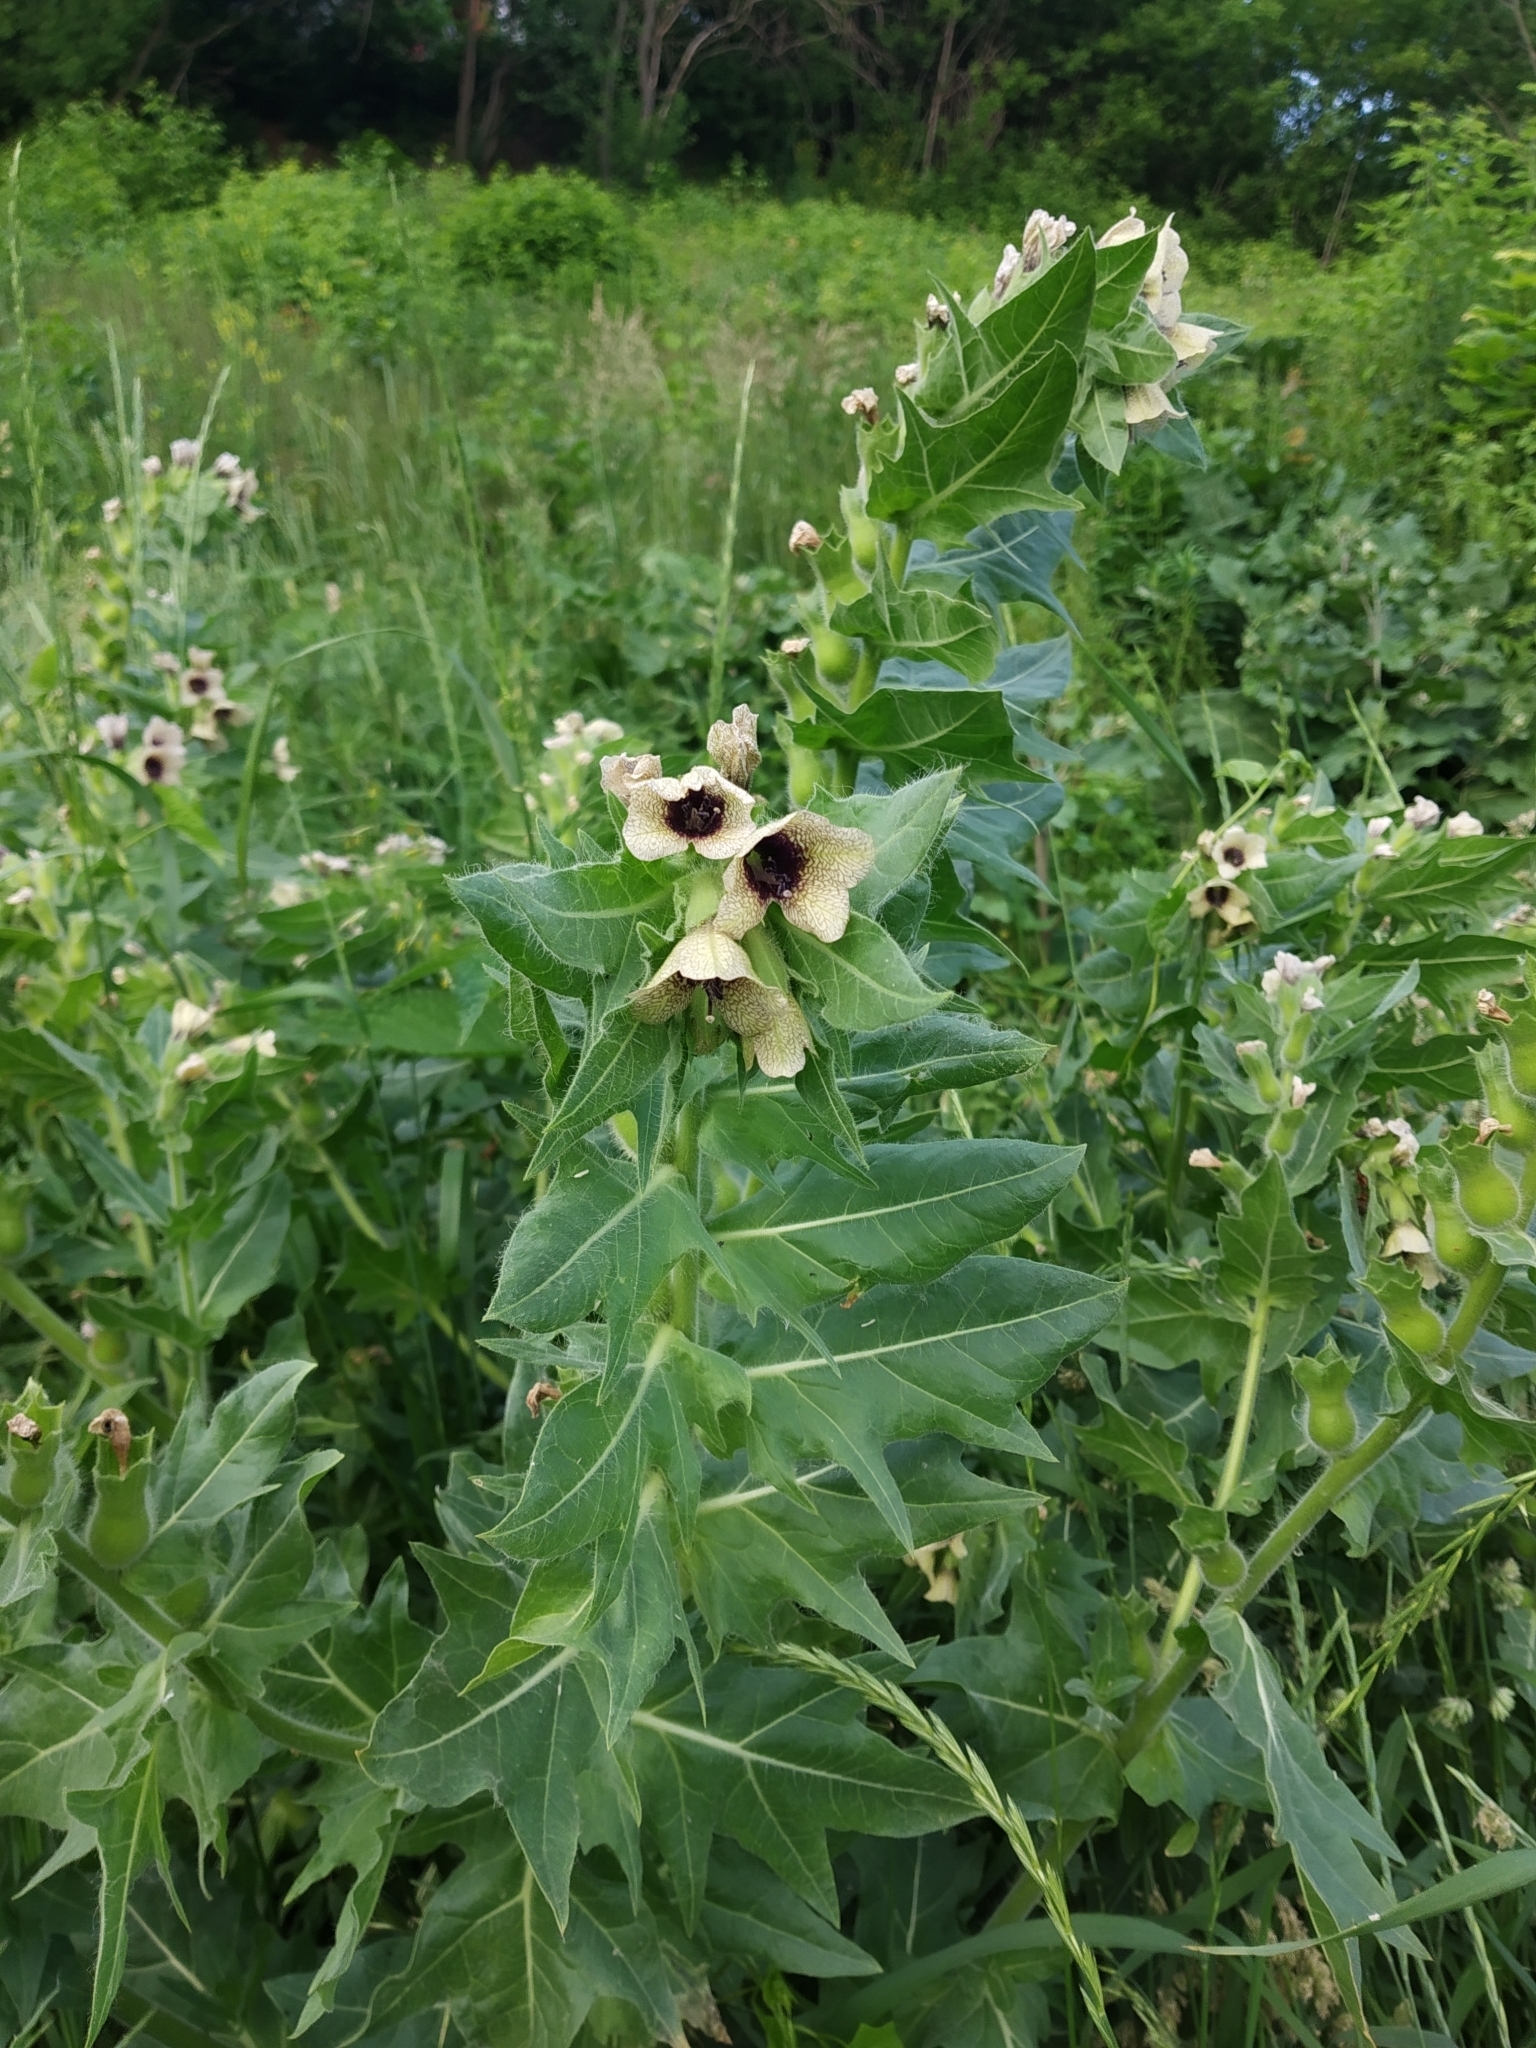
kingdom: Plantae
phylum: Tracheophyta
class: Magnoliopsida
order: Solanales
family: Solanaceae
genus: Hyoscyamus
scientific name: Hyoscyamus niger
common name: Henbane
